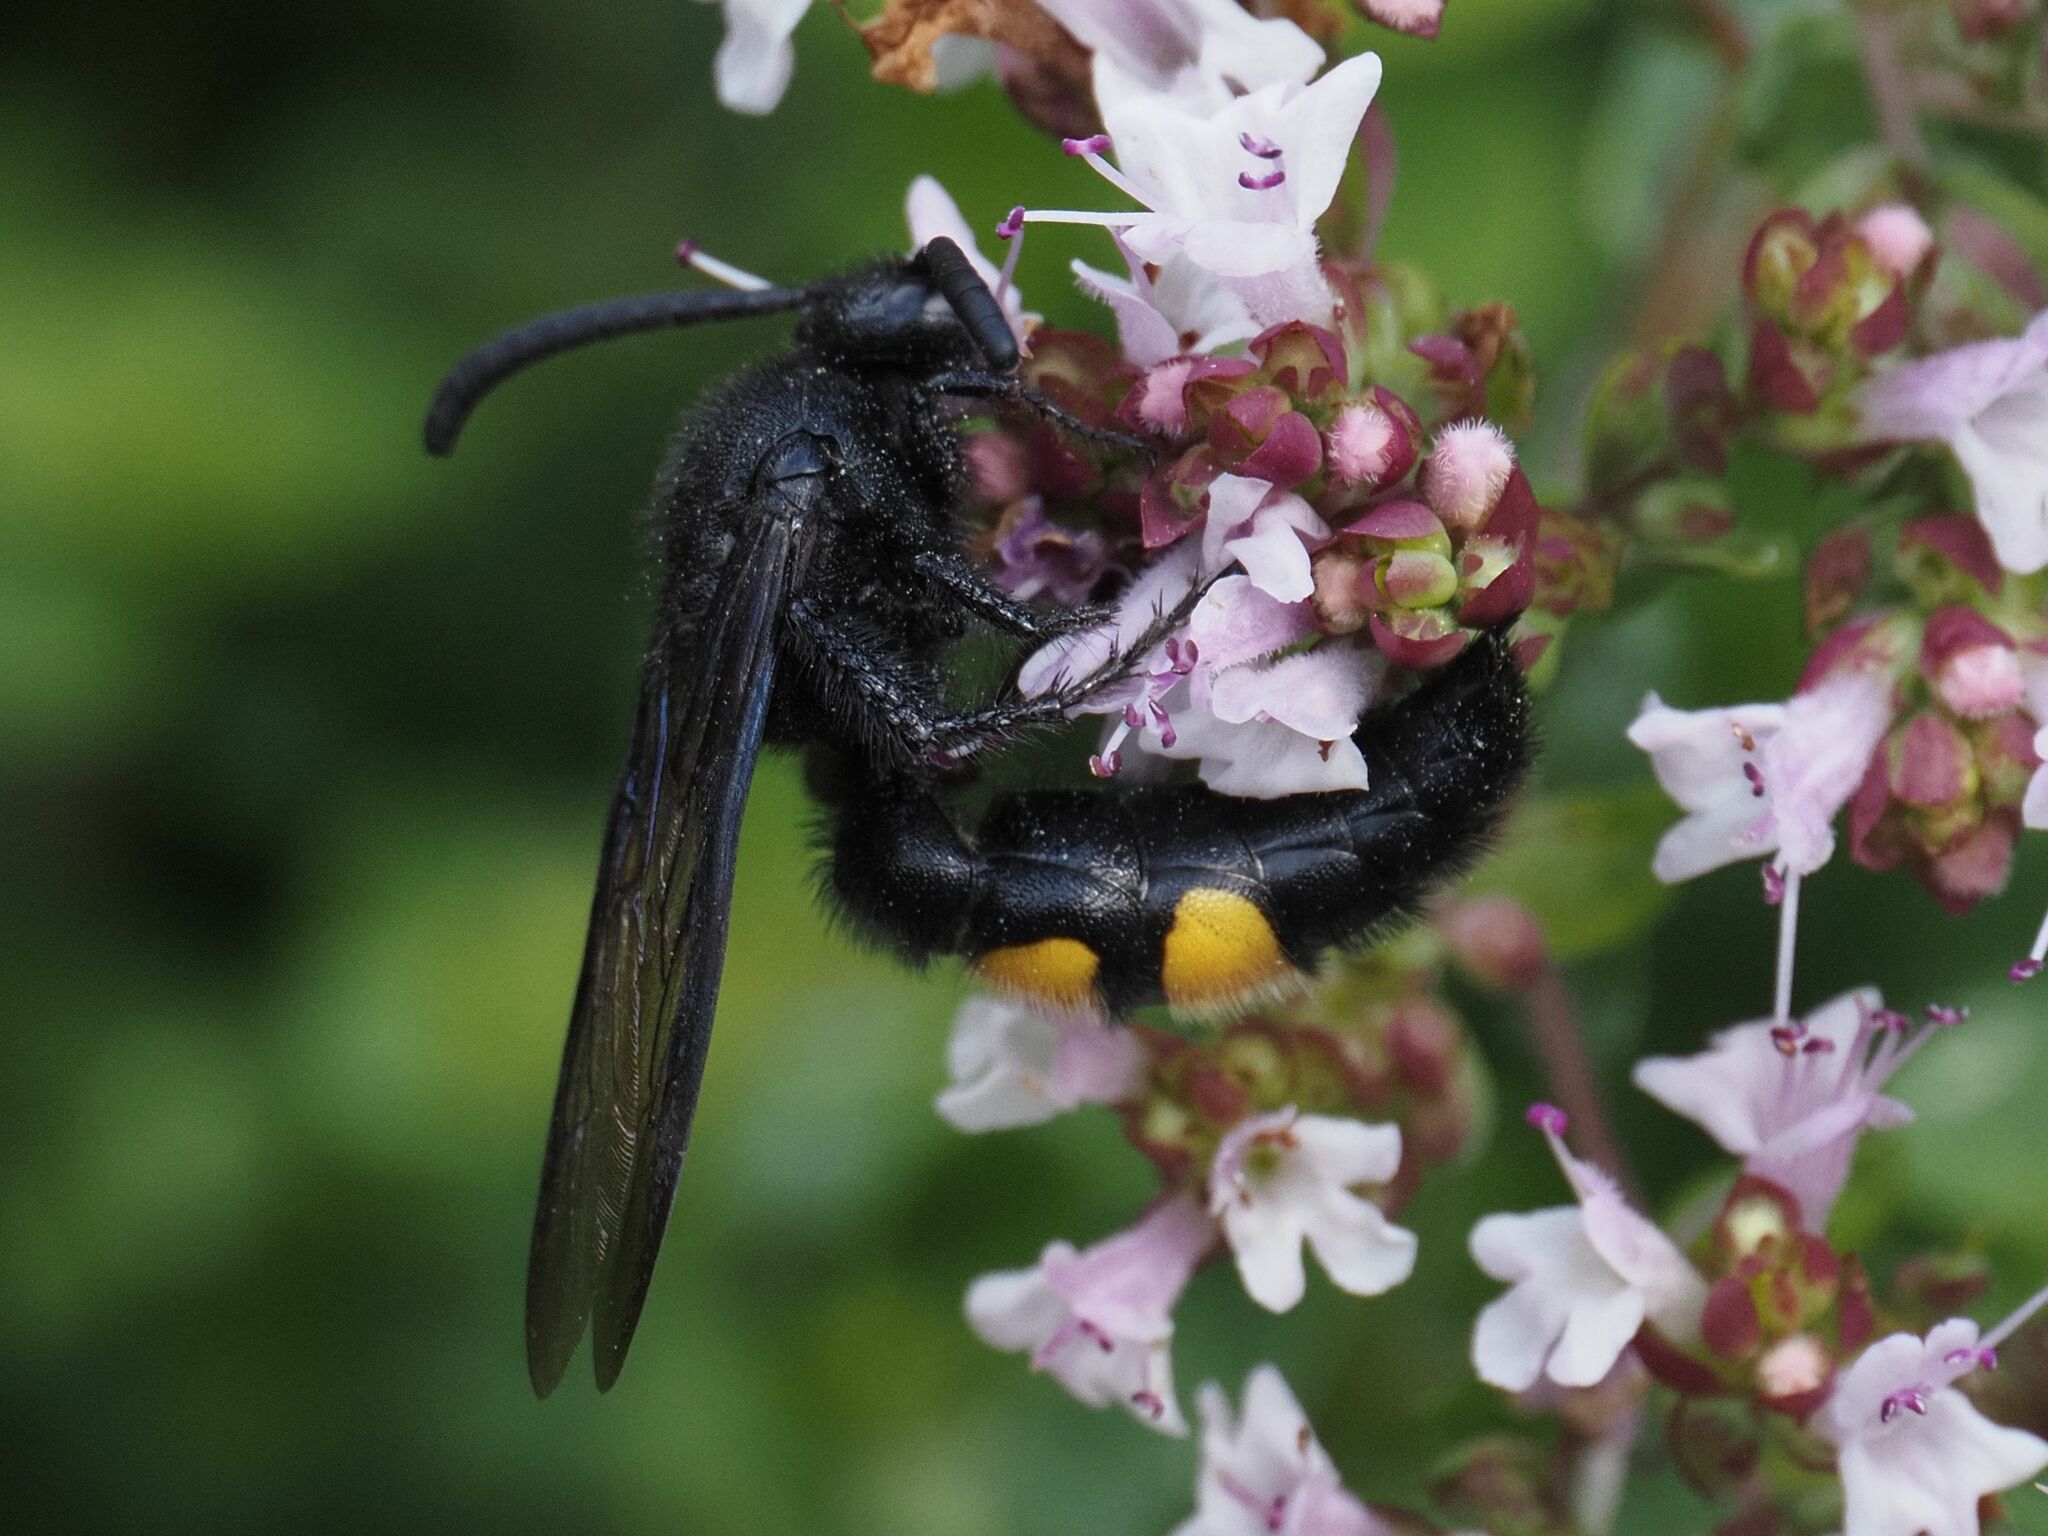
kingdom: Animalia
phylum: Arthropoda
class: Insecta
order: Hymenoptera
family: Scoliidae
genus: Scolia
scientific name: Scolia hirta
